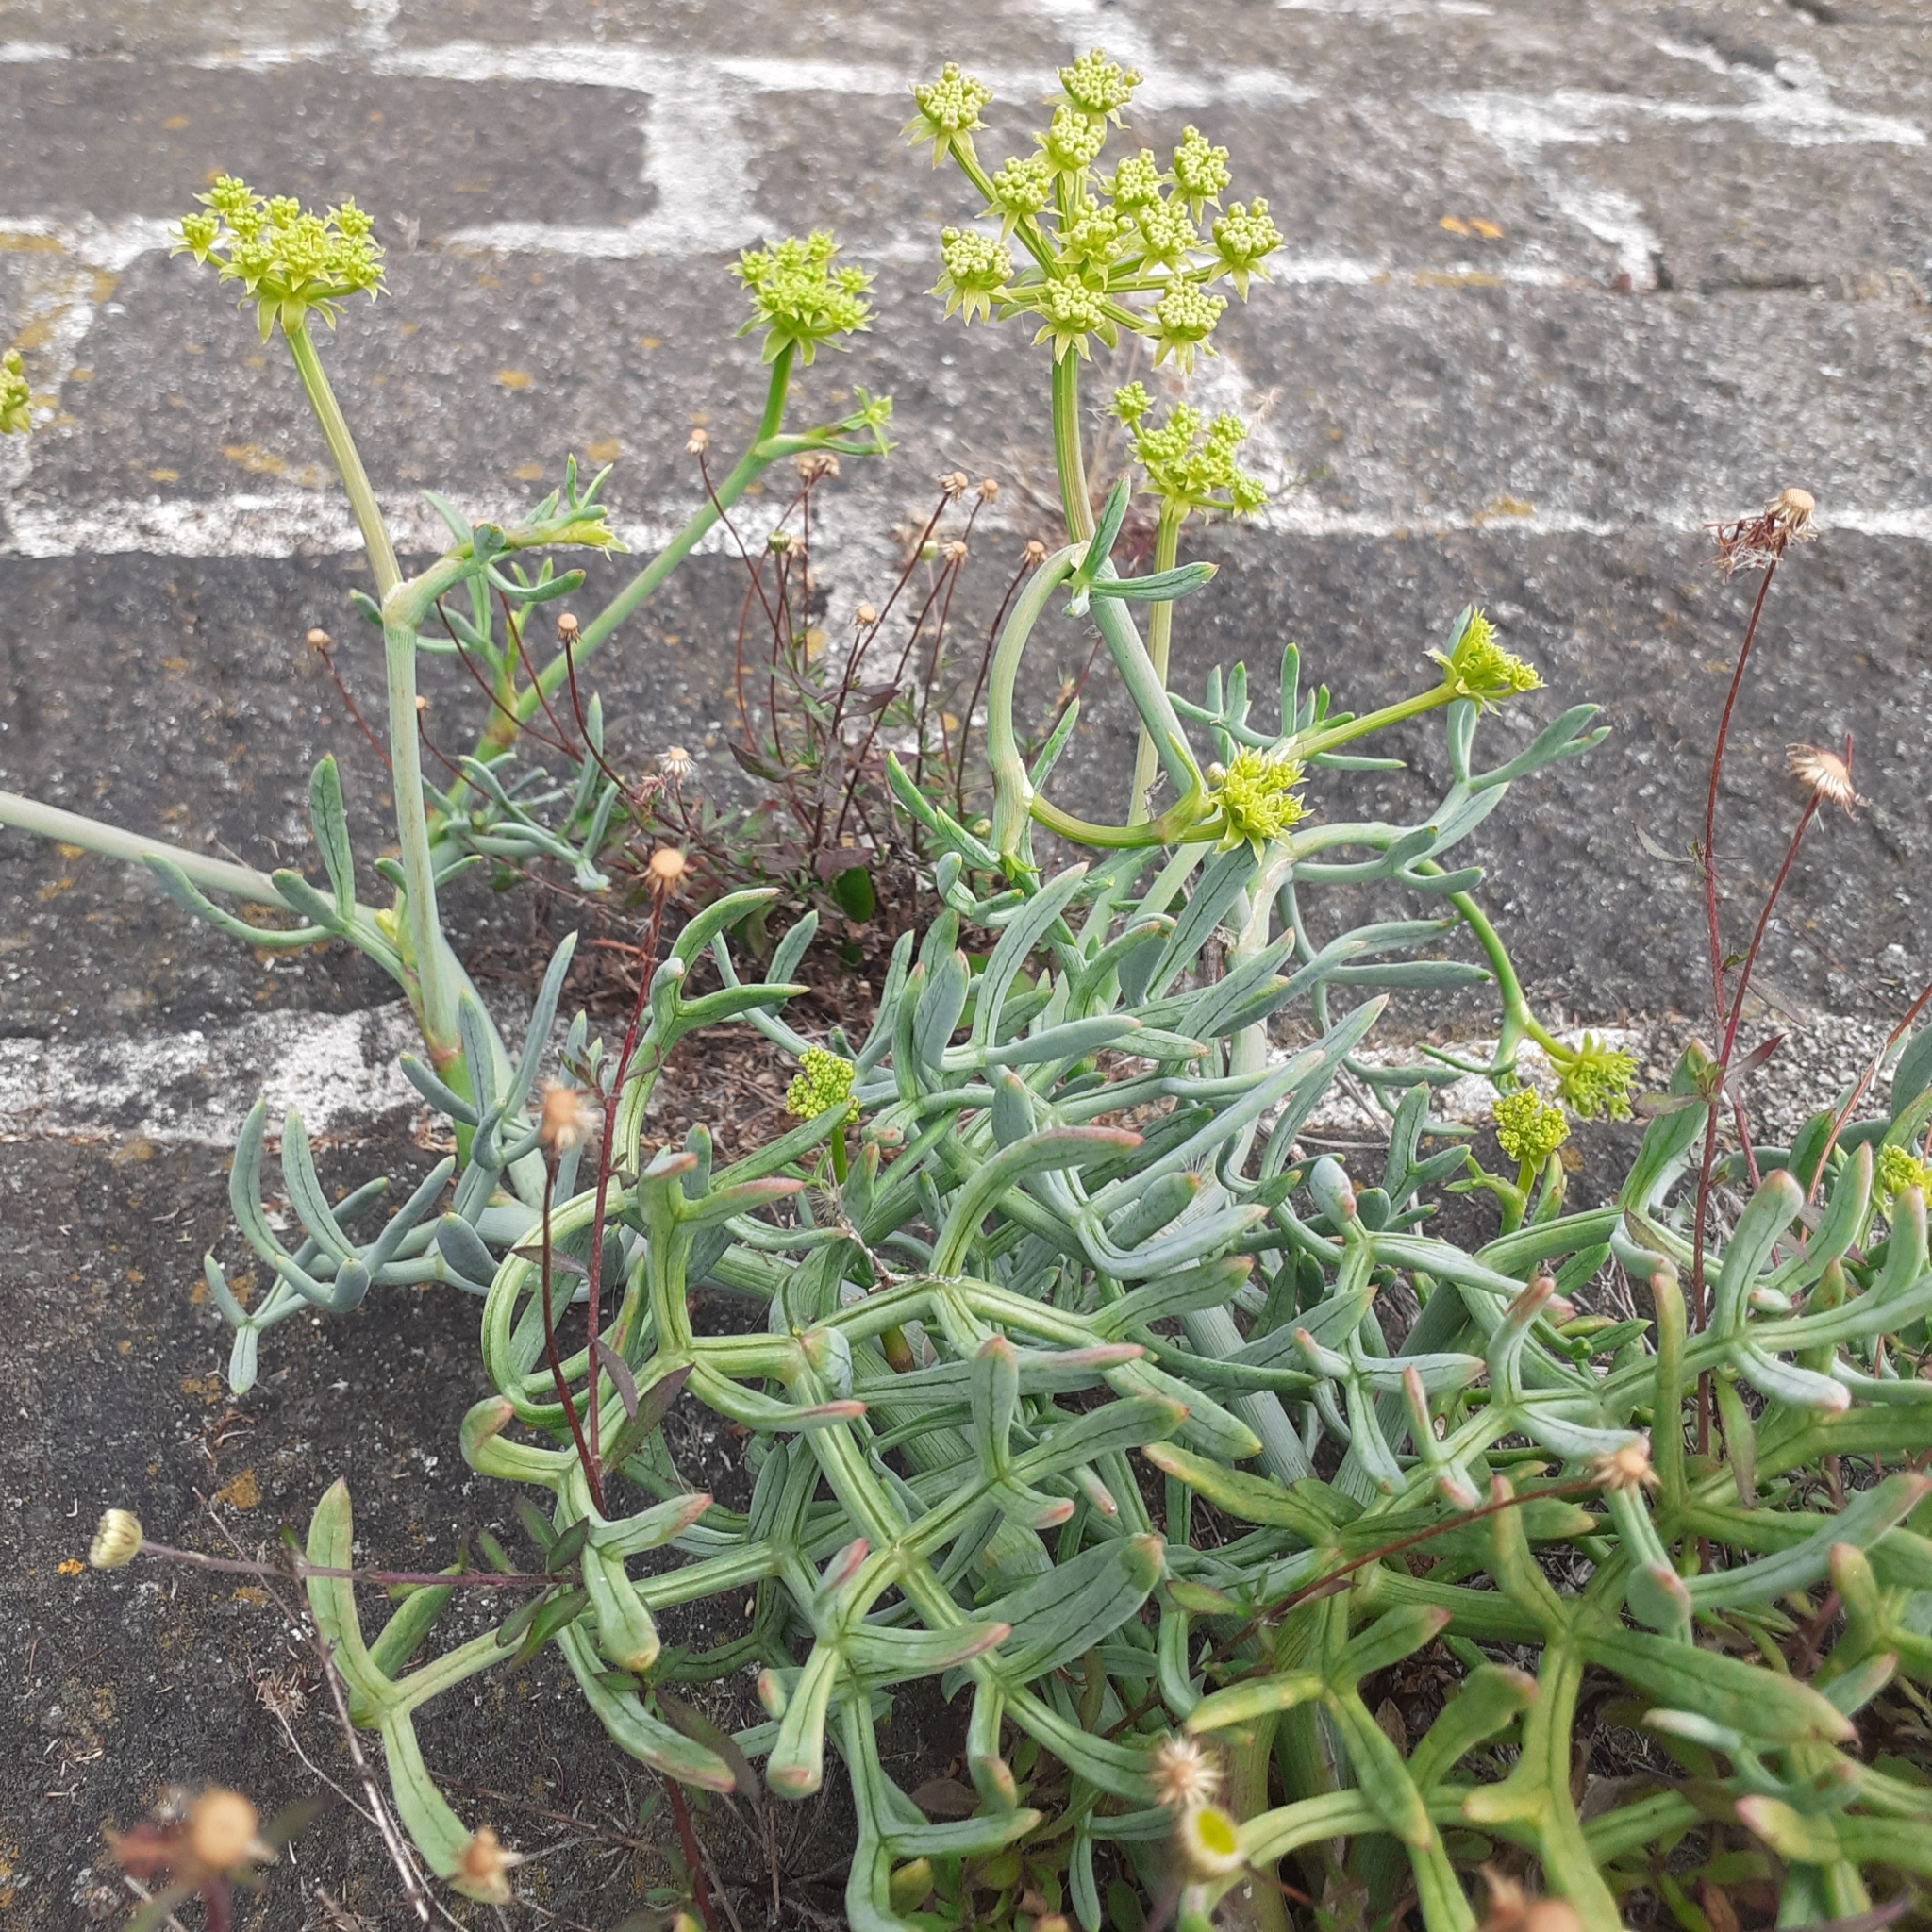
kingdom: Plantae
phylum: Tracheophyta
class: Magnoliopsida
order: Apiales
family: Apiaceae
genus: Crithmum
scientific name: Crithmum maritimum
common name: Rock samphire
